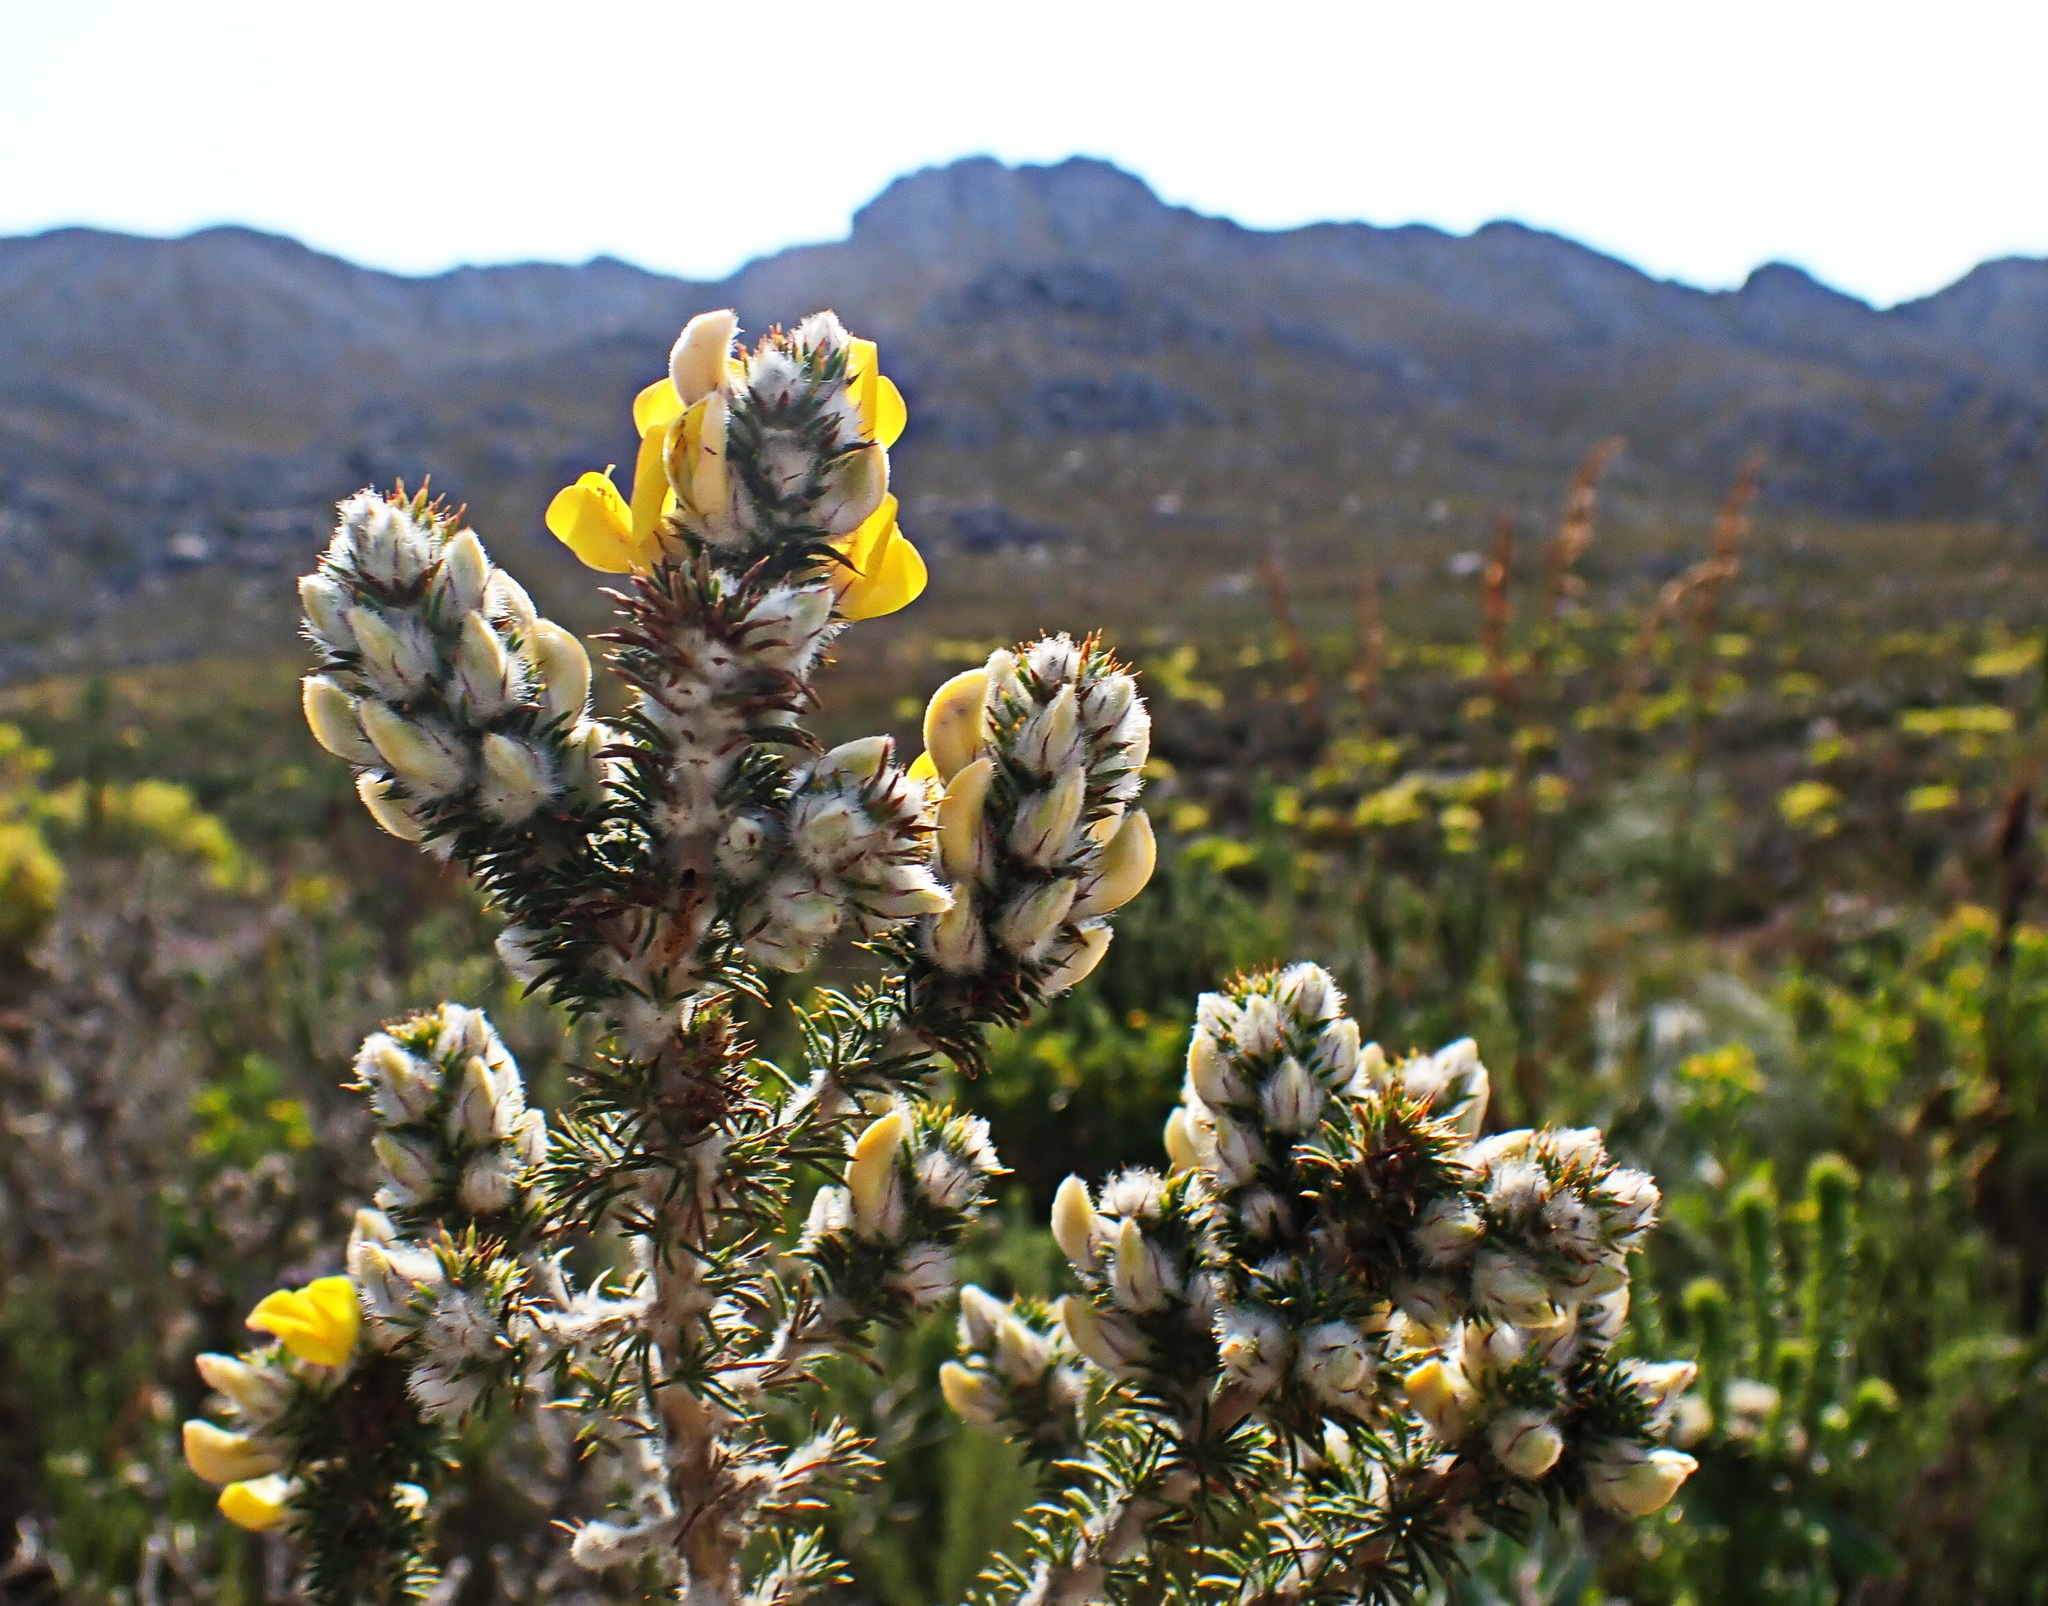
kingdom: Plantae
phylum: Tracheophyta
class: Magnoliopsida
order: Fabales
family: Fabaceae
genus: Aspalathus
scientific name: Aspalathus shawii
